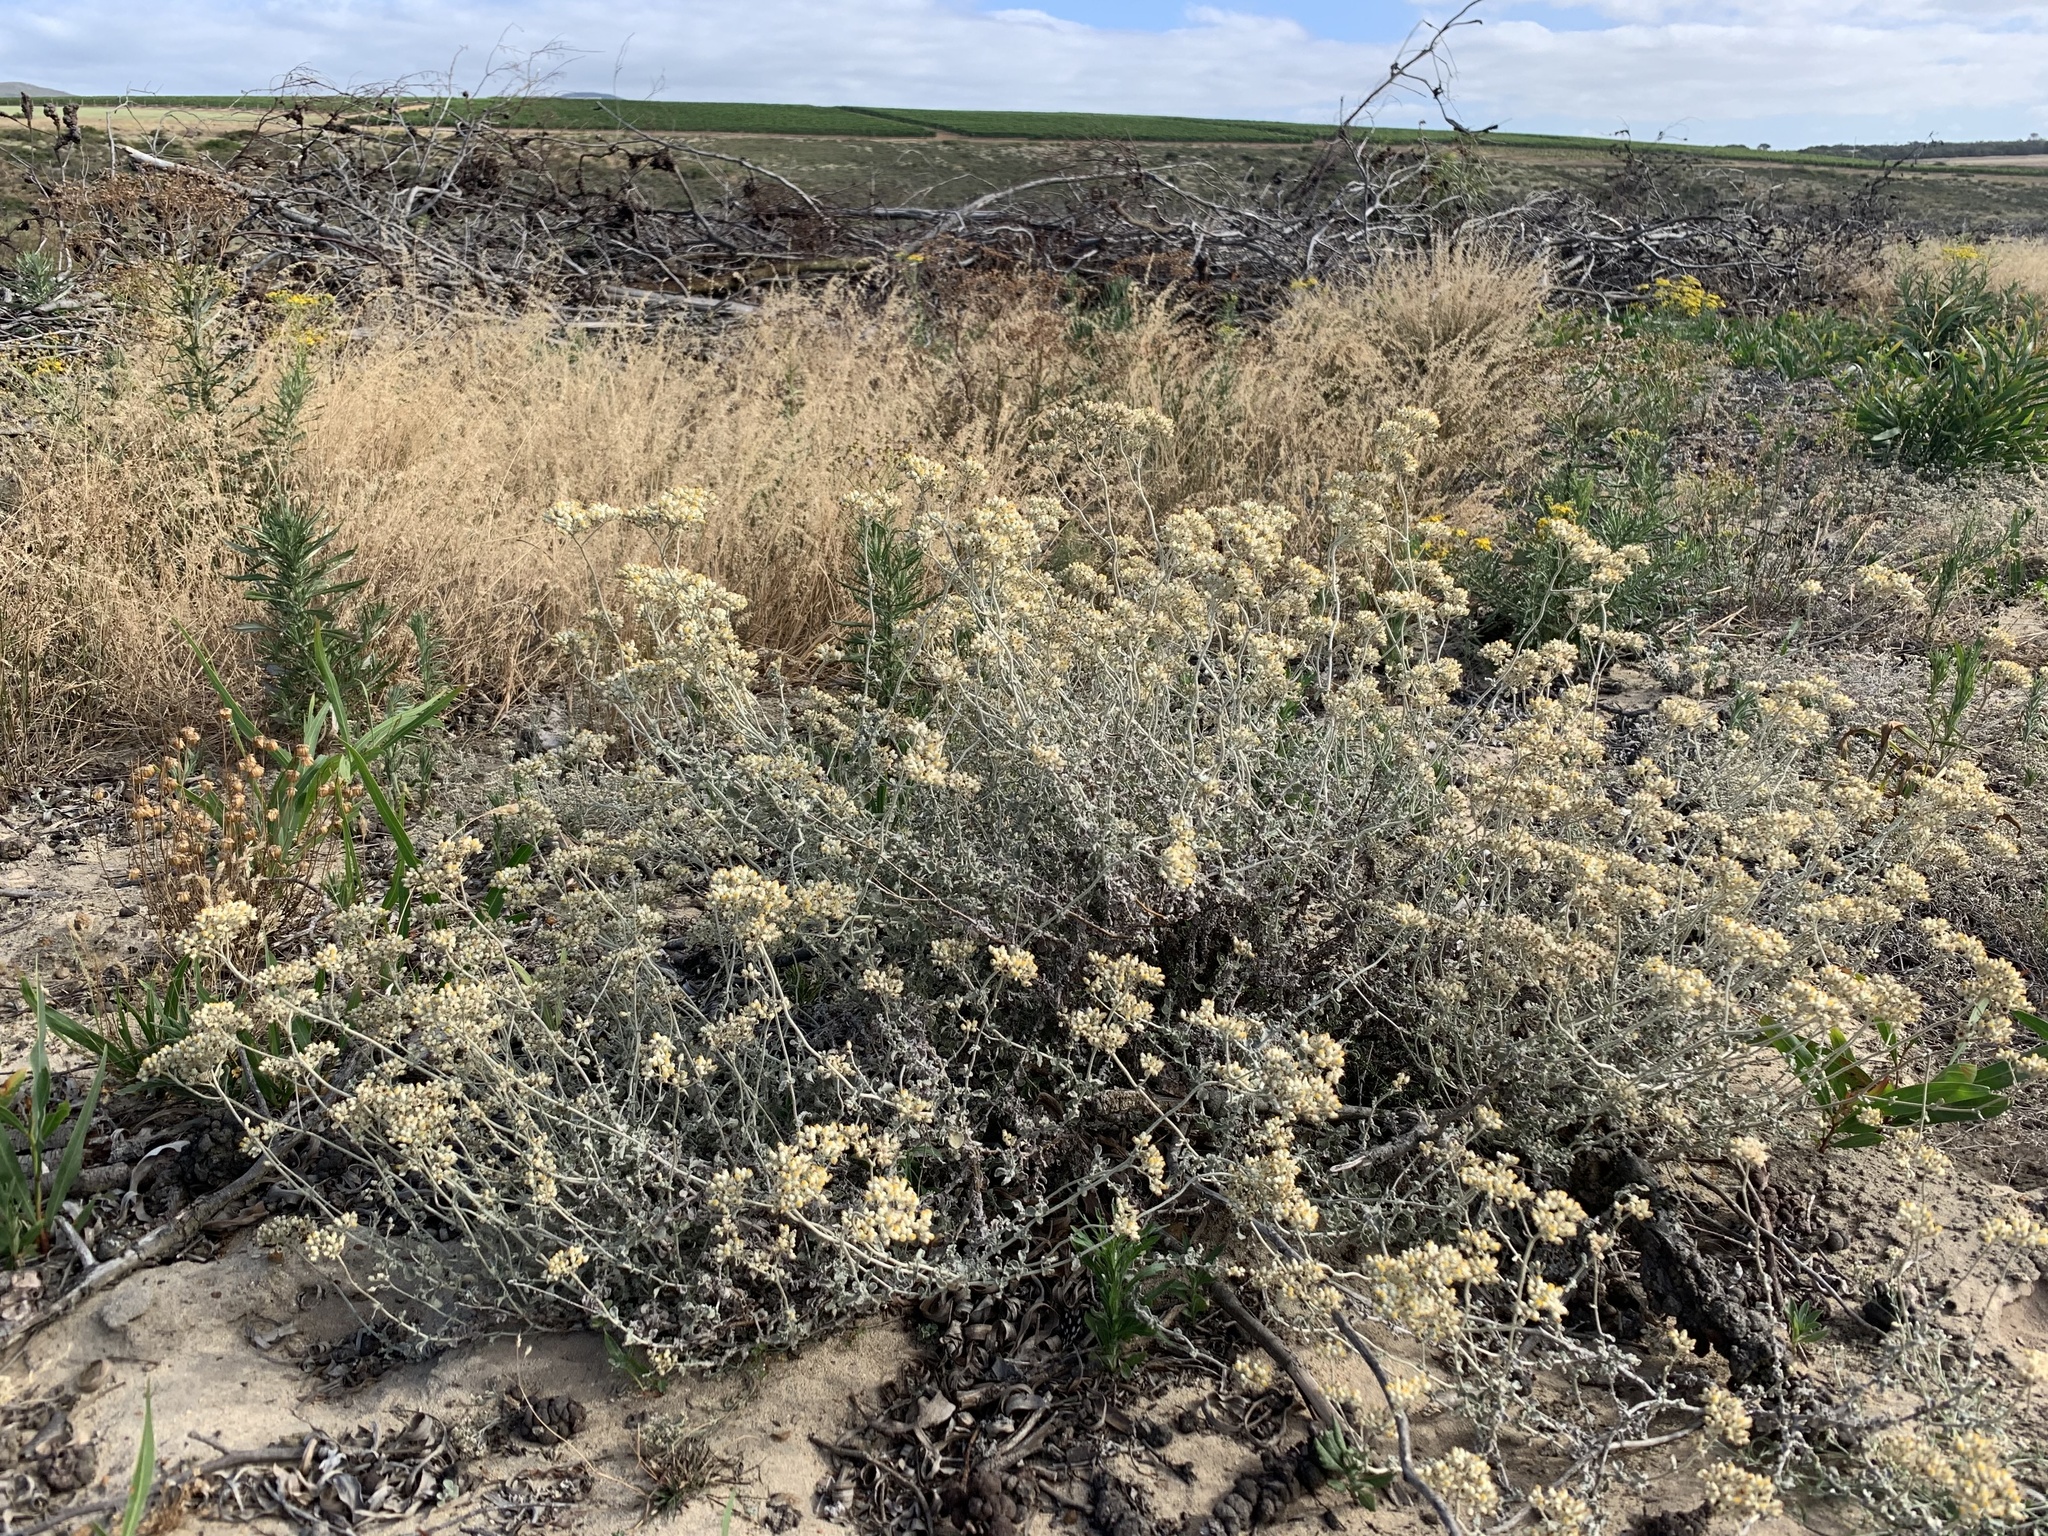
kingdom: Plantae
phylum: Tracheophyta
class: Magnoliopsida
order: Asterales
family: Asteraceae
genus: Helichrysum
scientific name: Helichrysum patulum
